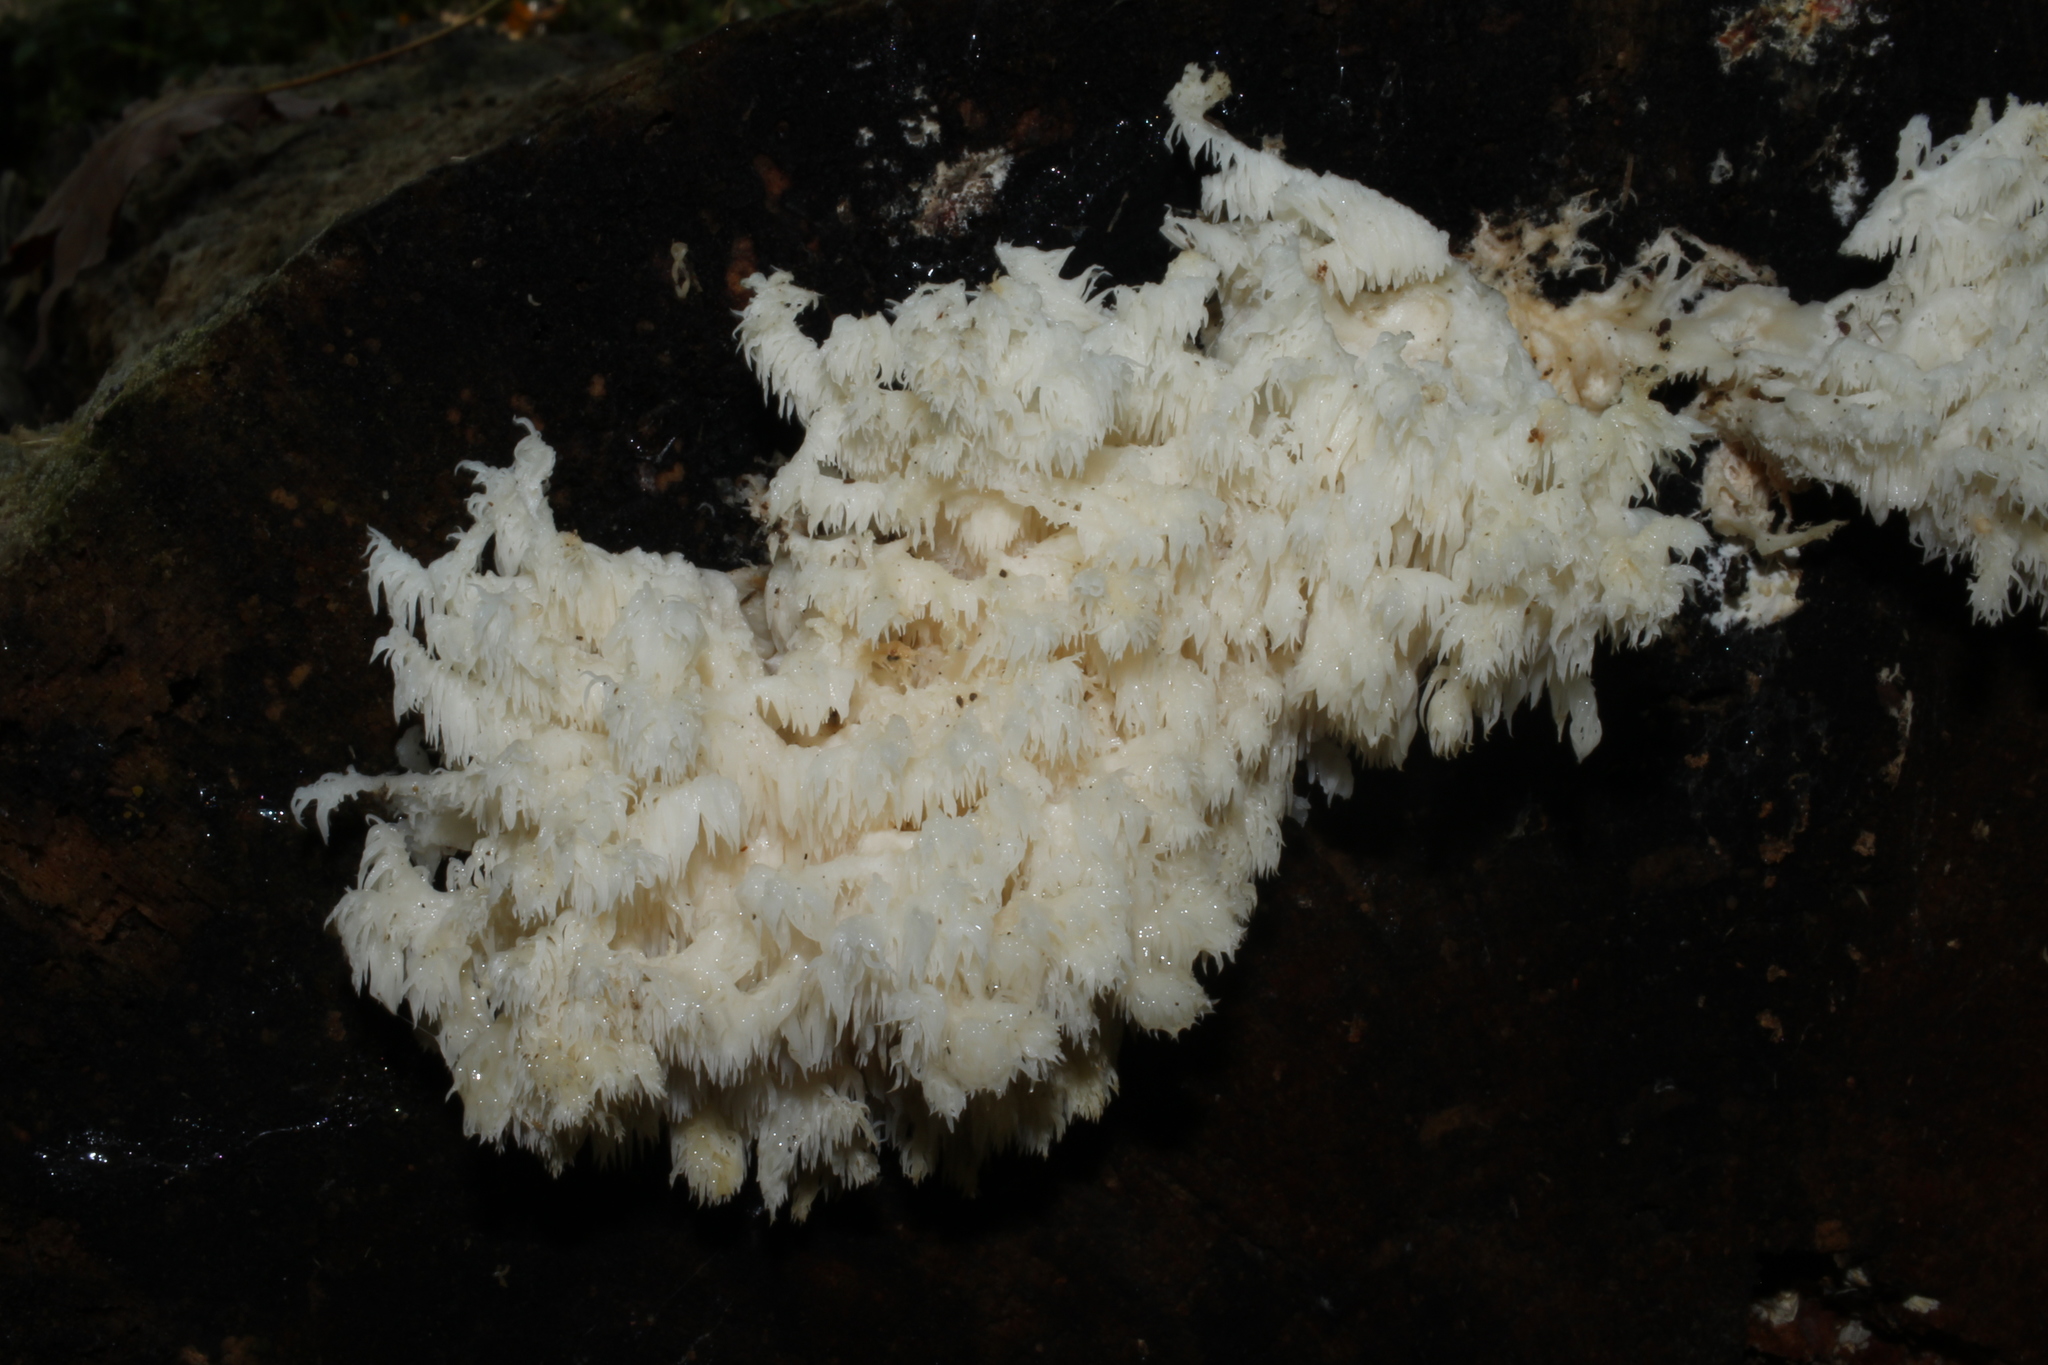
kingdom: Fungi
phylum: Basidiomycota
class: Agaricomycetes
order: Russulales
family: Hericiaceae
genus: Hericium
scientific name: Hericium coralloides
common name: Coral tooth
